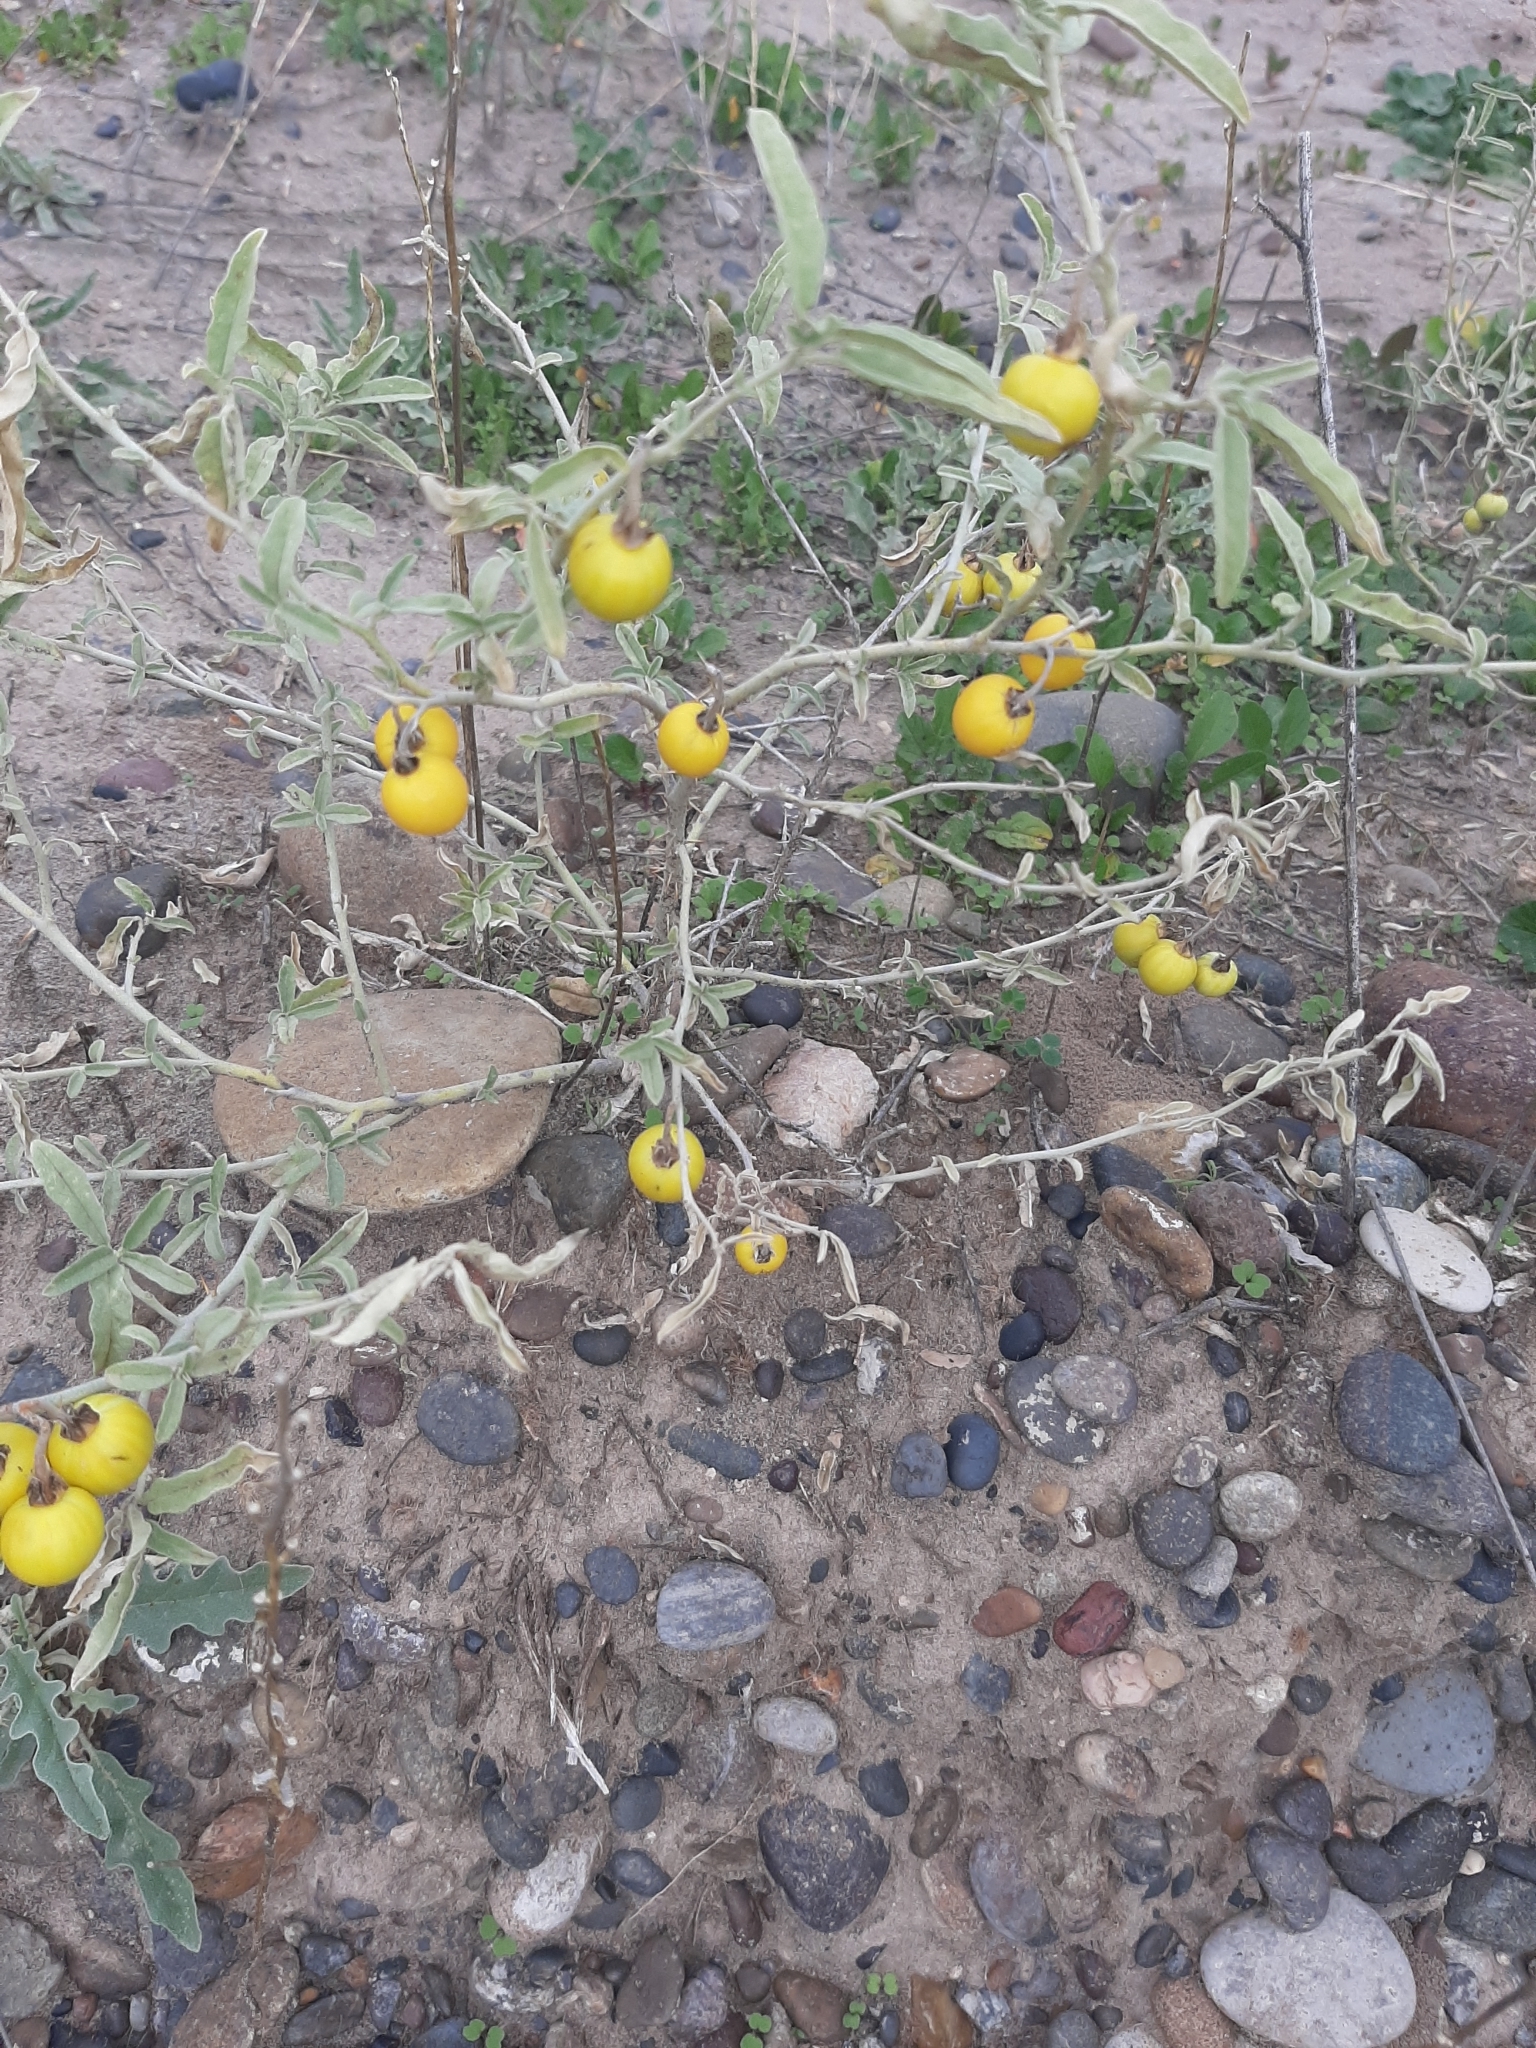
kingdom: Plantae
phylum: Tracheophyta
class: Magnoliopsida
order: Solanales
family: Solanaceae
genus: Solanum
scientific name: Solanum elaeagnifolium
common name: Silverleaf nightshade
